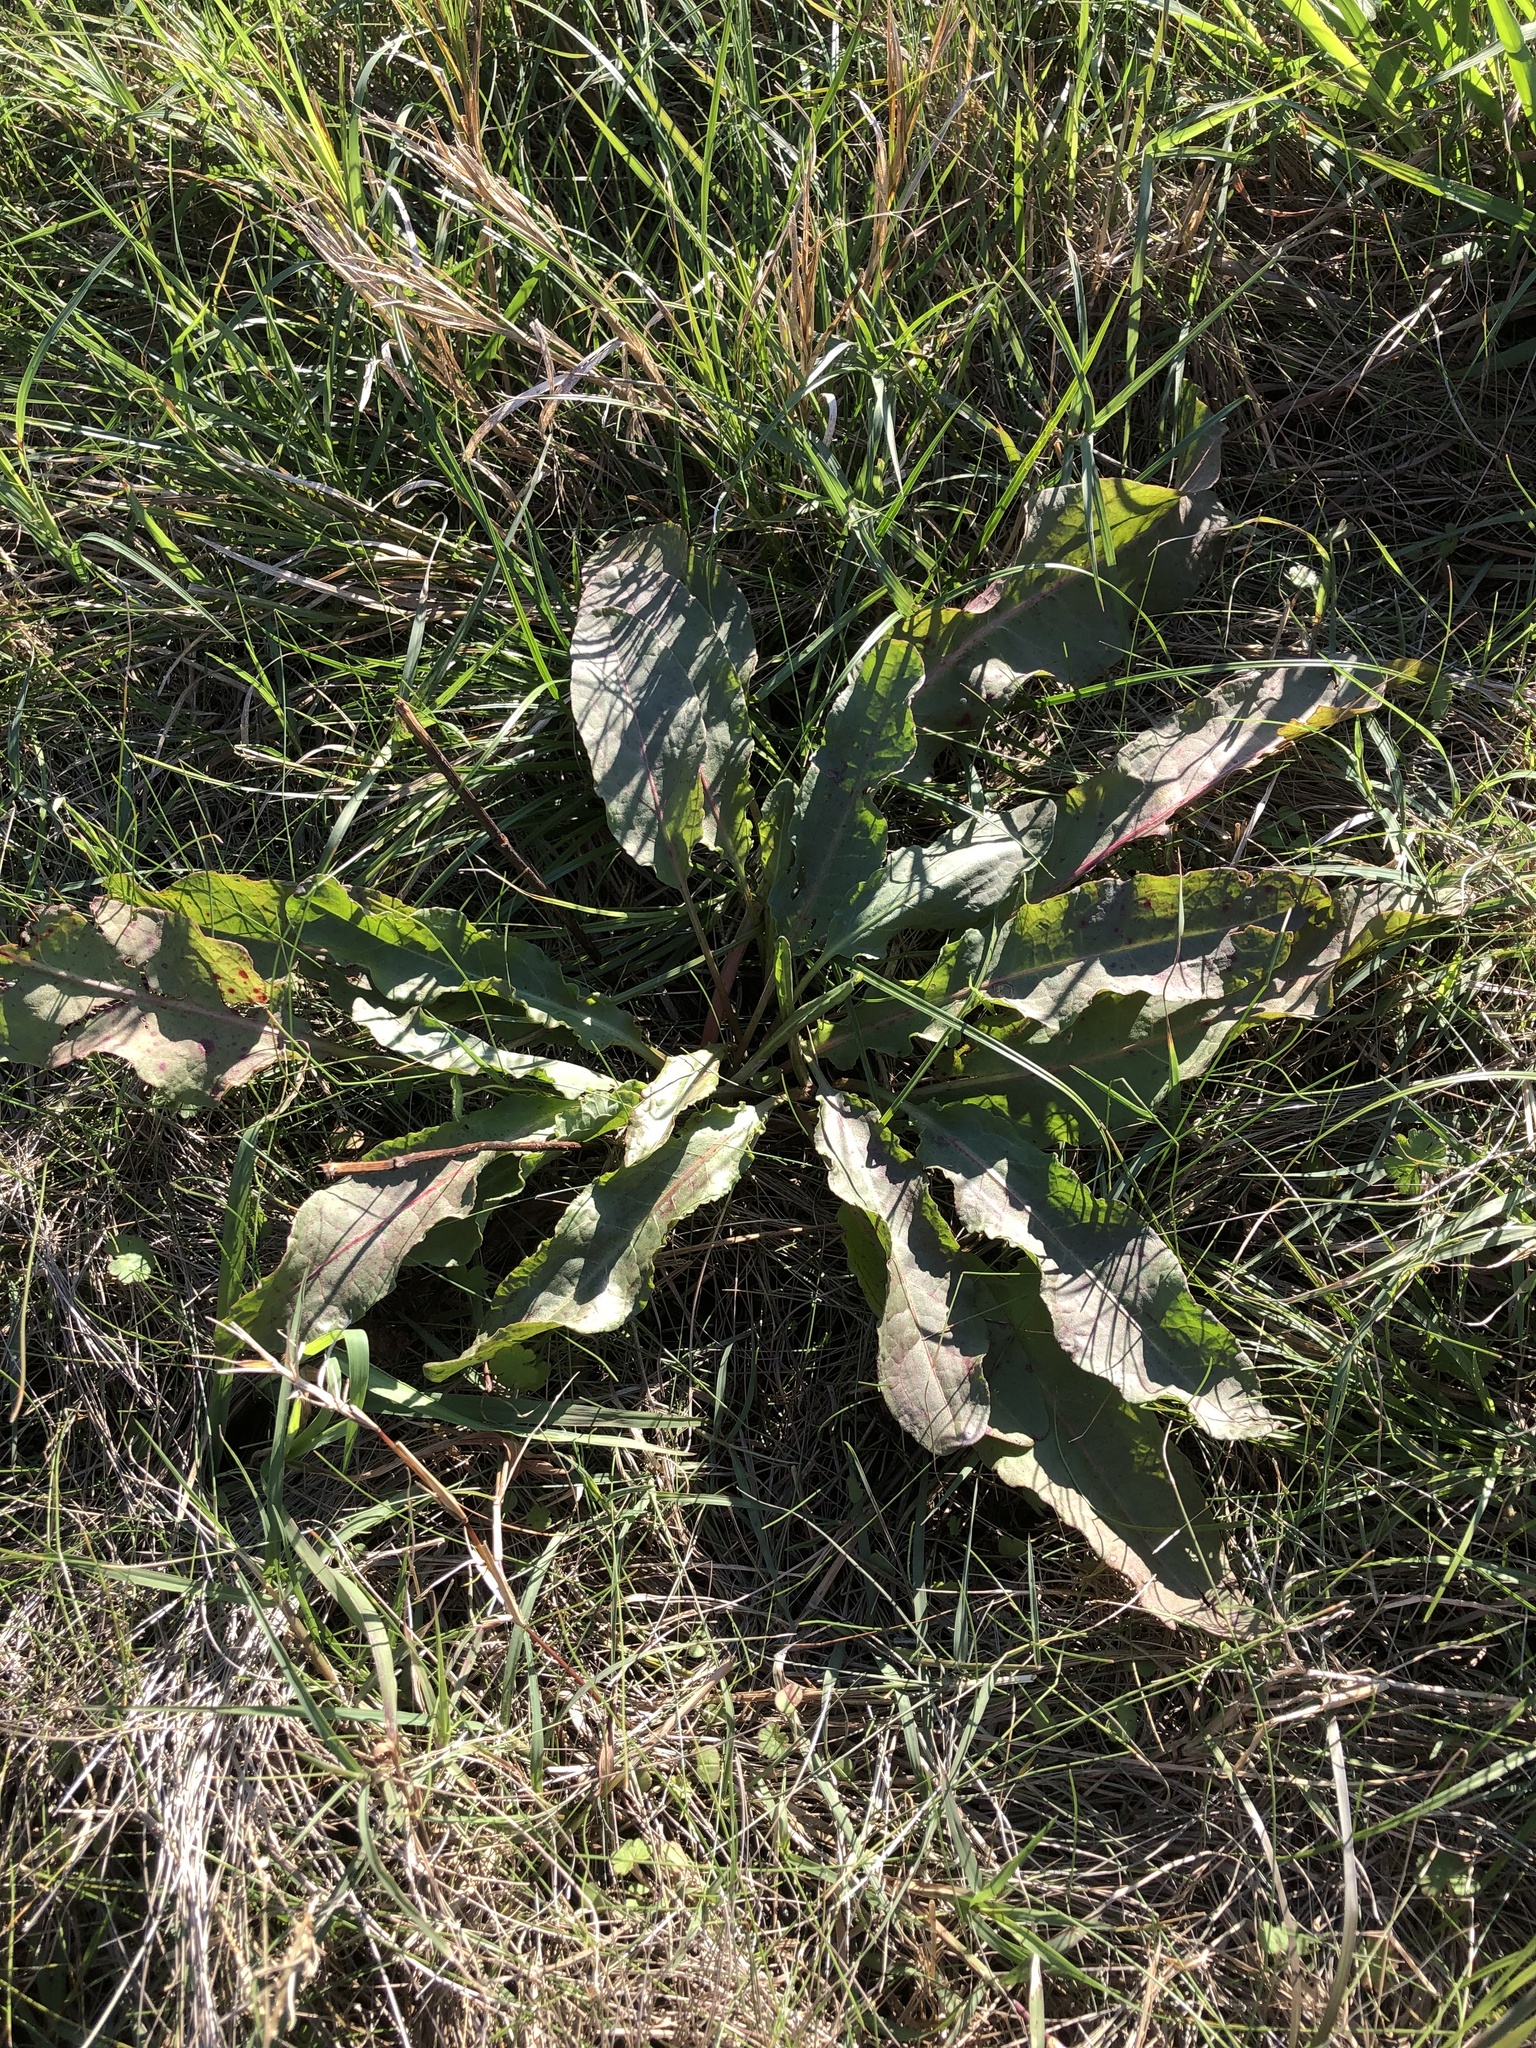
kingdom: Plantae
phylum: Tracheophyta
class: Magnoliopsida
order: Caryophyllales
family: Polygonaceae
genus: Rumex
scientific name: Rumex crispus
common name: Curled dock
